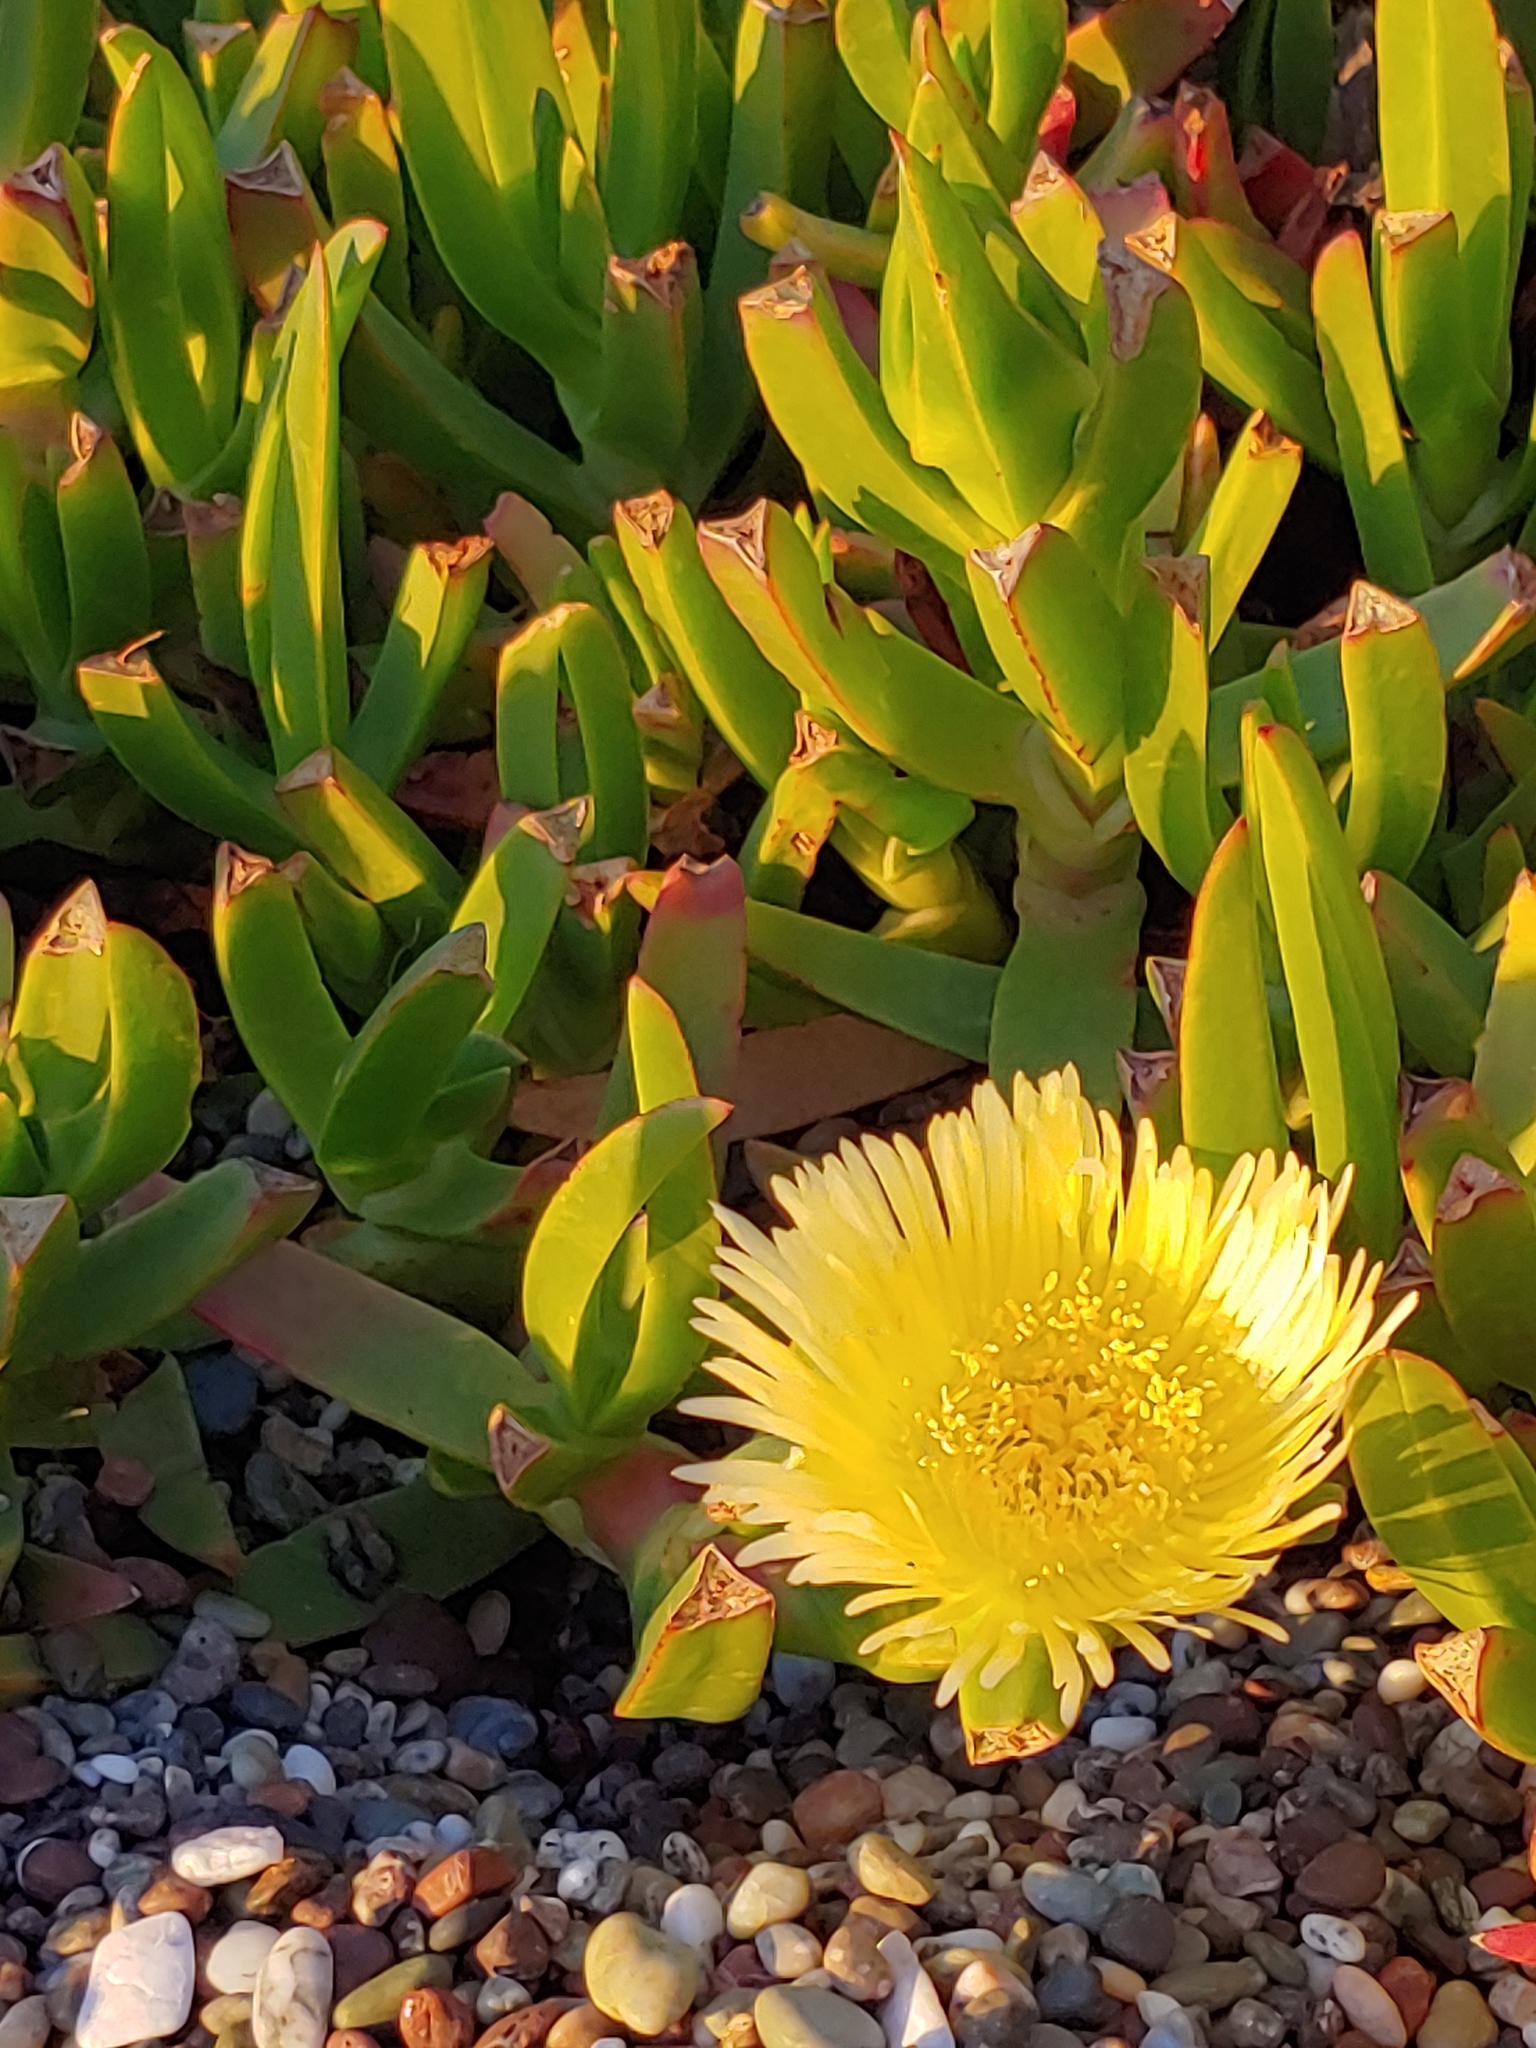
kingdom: Plantae
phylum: Tracheophyta
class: Magnoliopsida
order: Caryophyllales
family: Aizoaceae
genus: Carpobrotus
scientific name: Carpobrotus edulis
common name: Hottentot-fig
